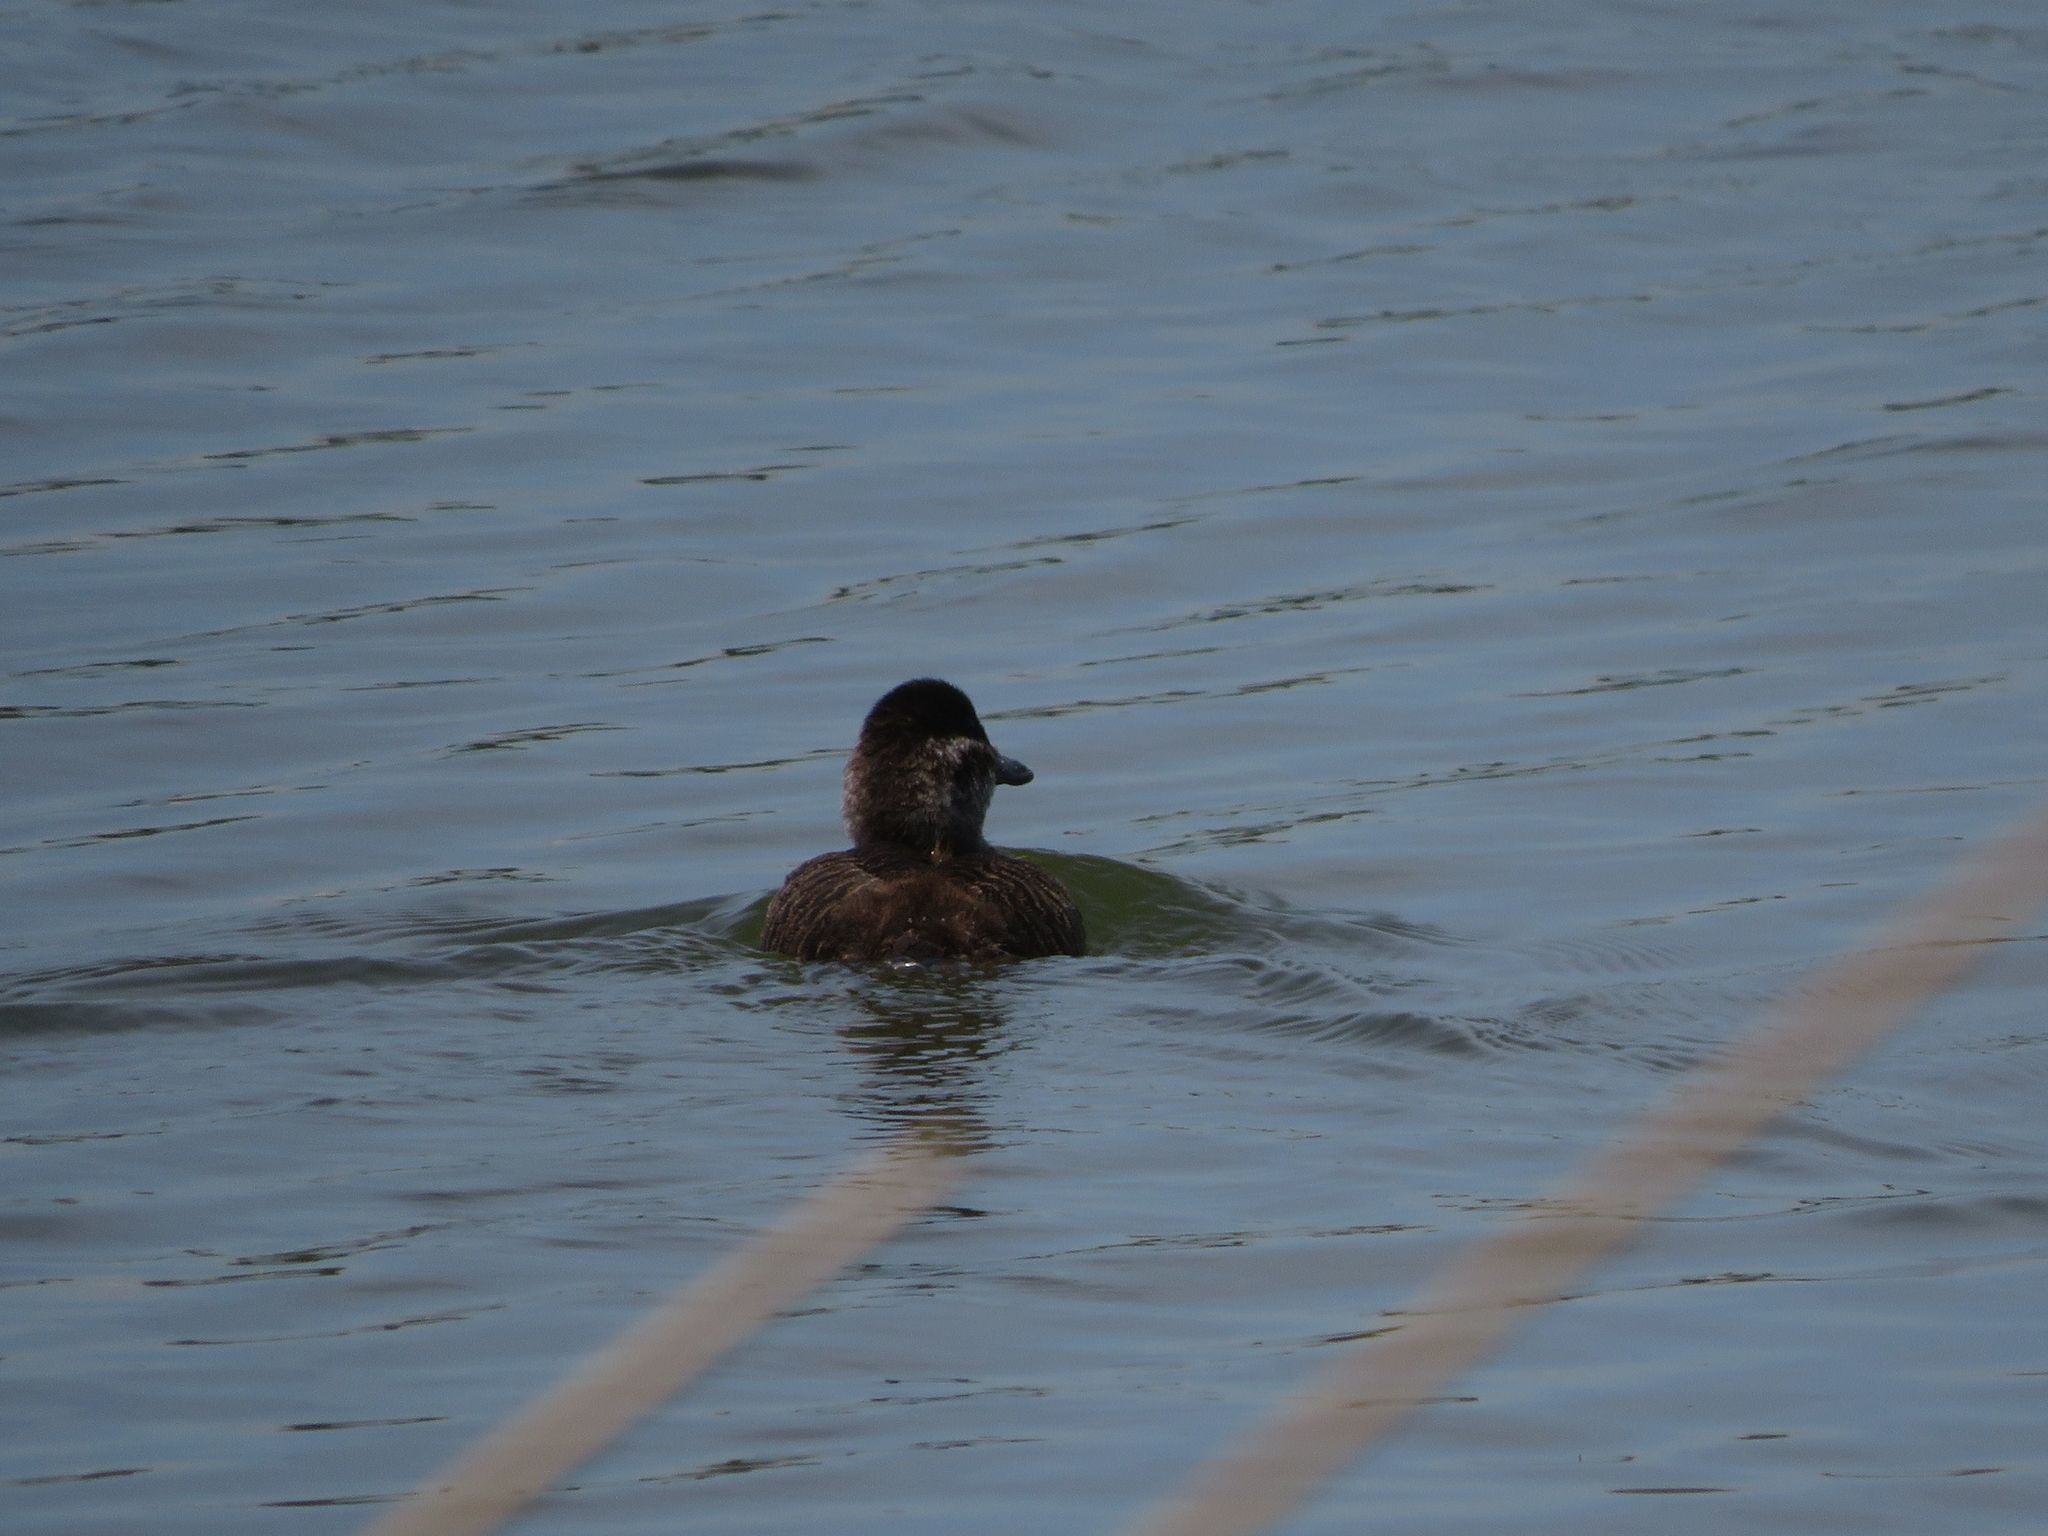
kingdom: Animalia
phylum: Chordata
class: Aves
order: Anseriformes
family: Anatidae
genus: Oxyura
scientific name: Oxyura vittata
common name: Lake duck
